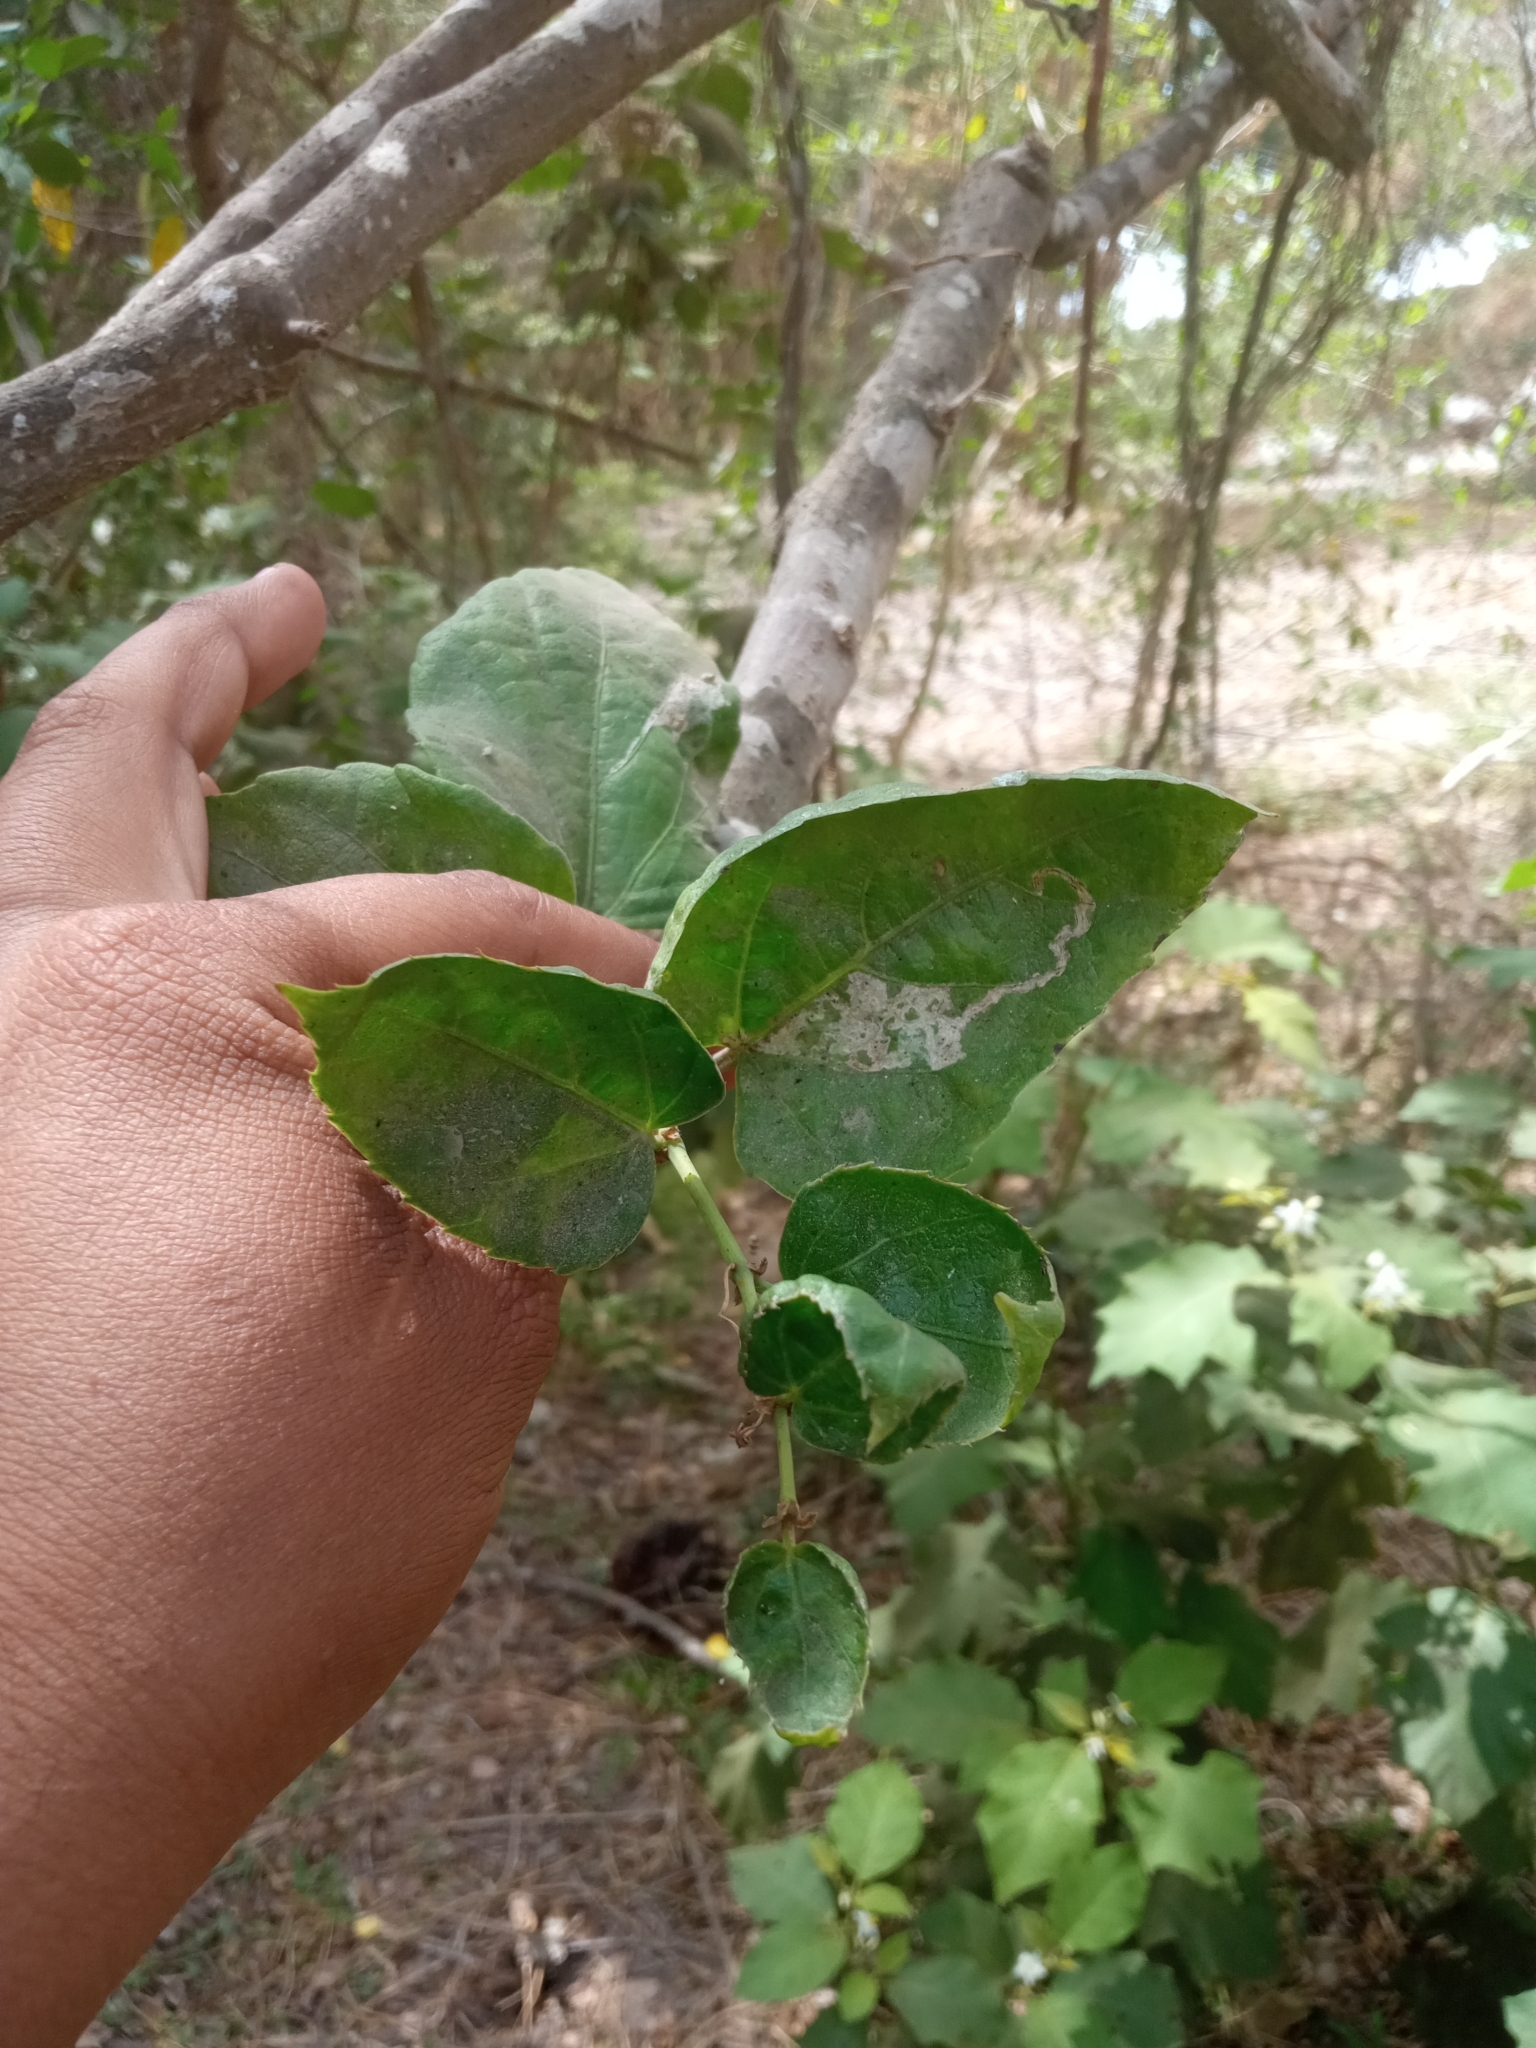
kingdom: Plantae
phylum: Tracheophyta
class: Magnoliopsida
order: Vitales
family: Vitaceae
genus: Cissus
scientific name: Cissus verticillata
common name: Princess vine
